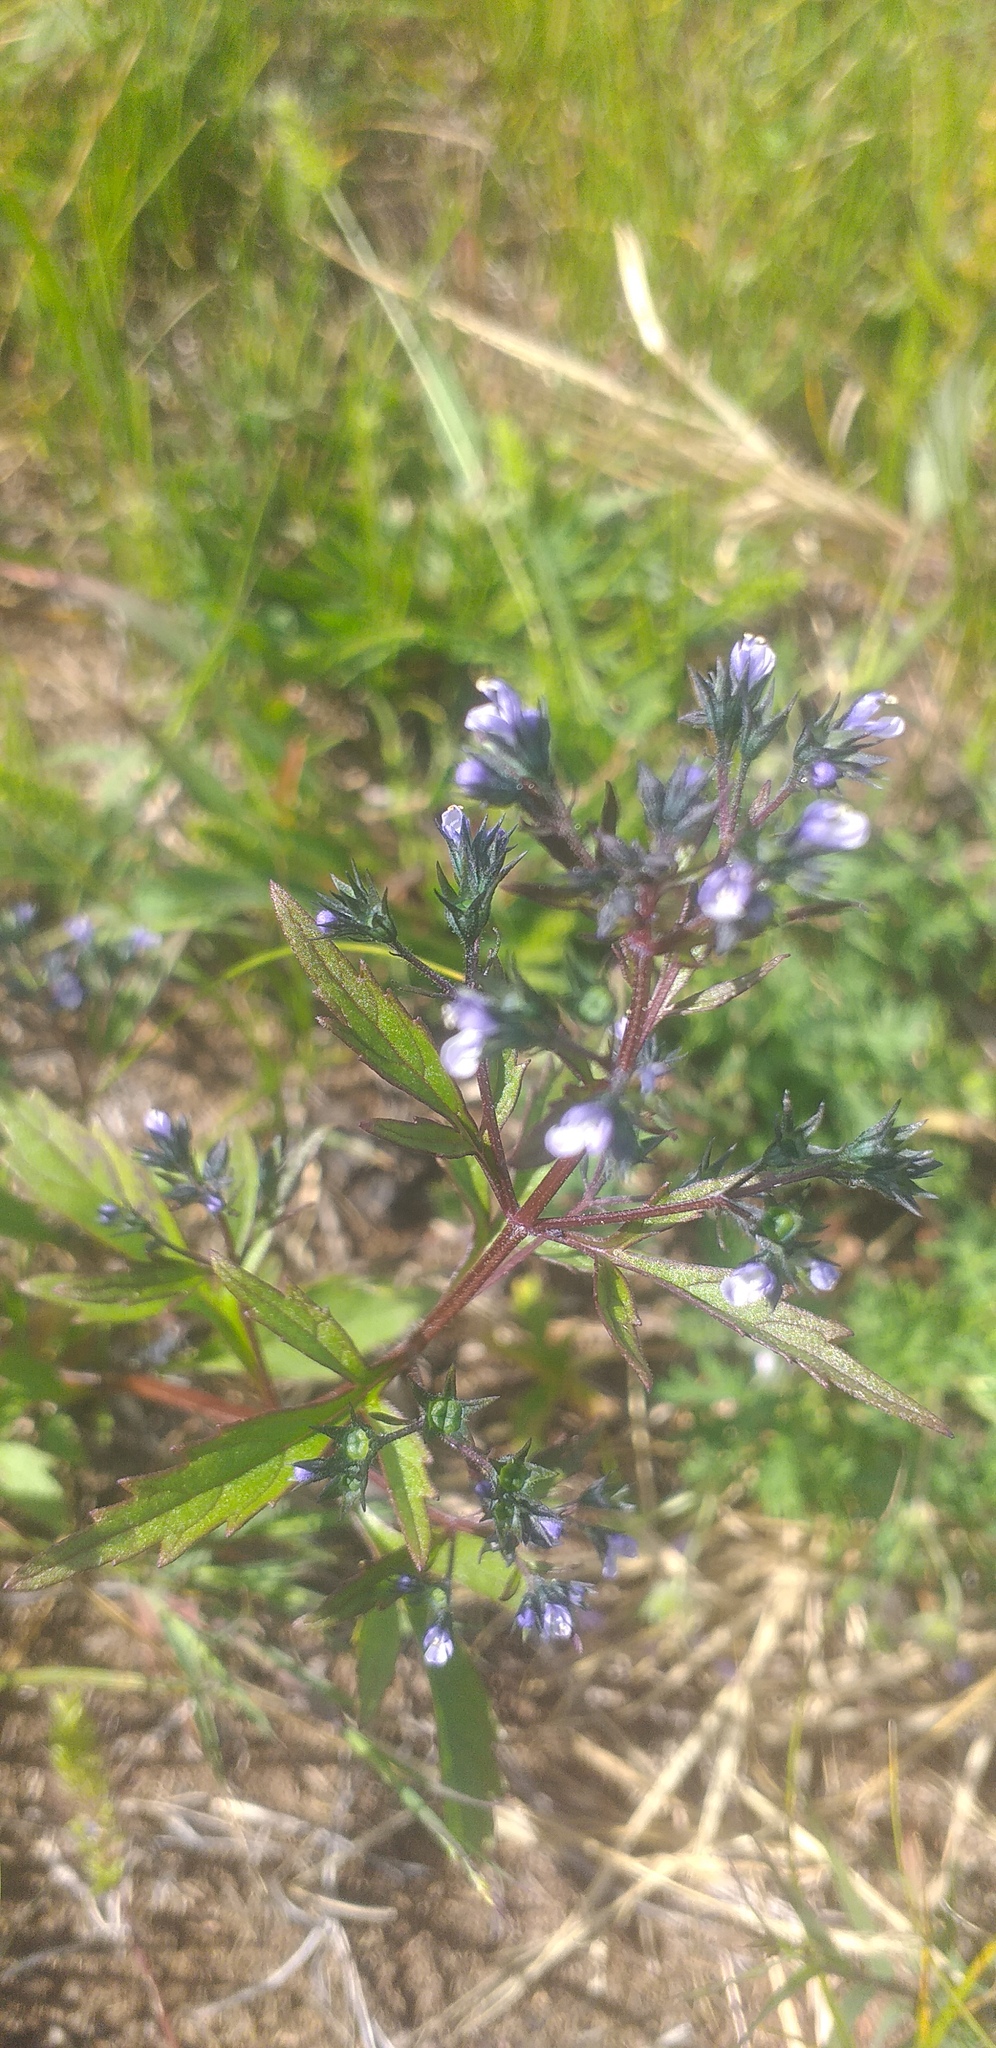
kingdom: Plantae
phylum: Tracheophyta
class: Magnoliopsida
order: Lamiales
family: Lamiaceae
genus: Amethystea
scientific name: Amethystea caerulea
